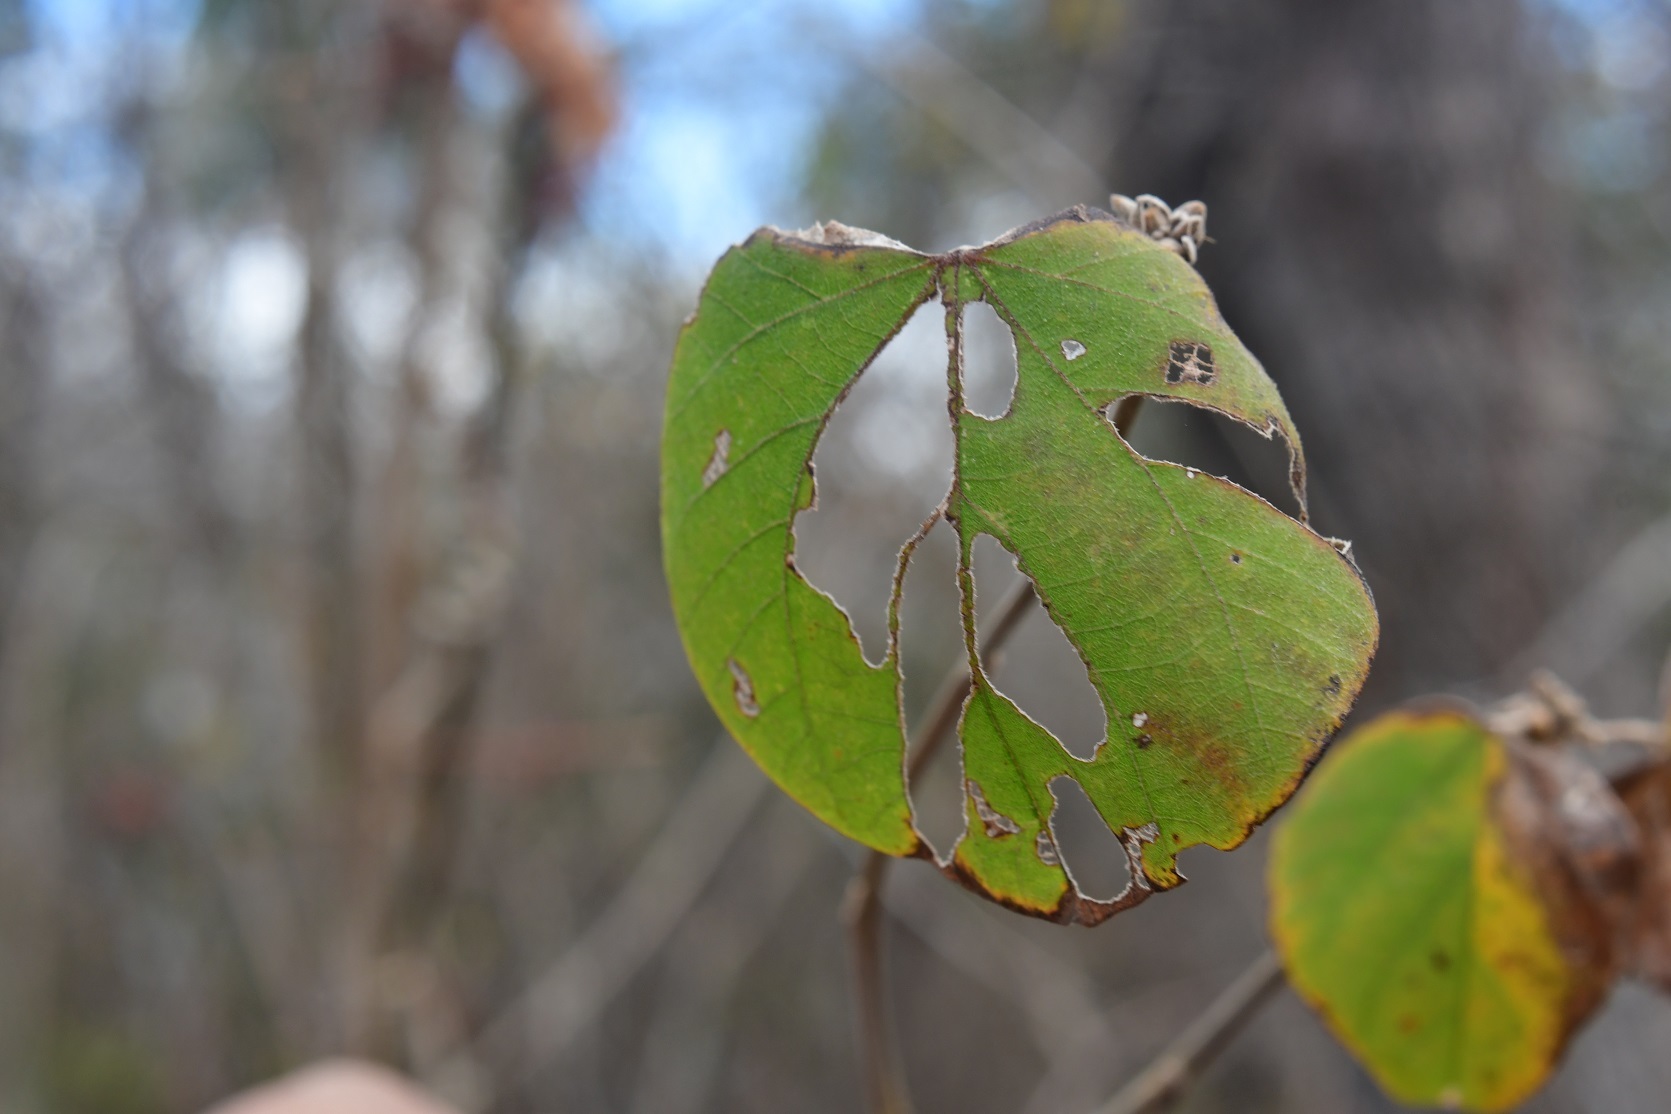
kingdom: Plantae
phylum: Tracheophyta
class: Magnoliopsida
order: Malvales
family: Malvaceae
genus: Bakeridesia
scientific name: Bakeridesia pittieri
